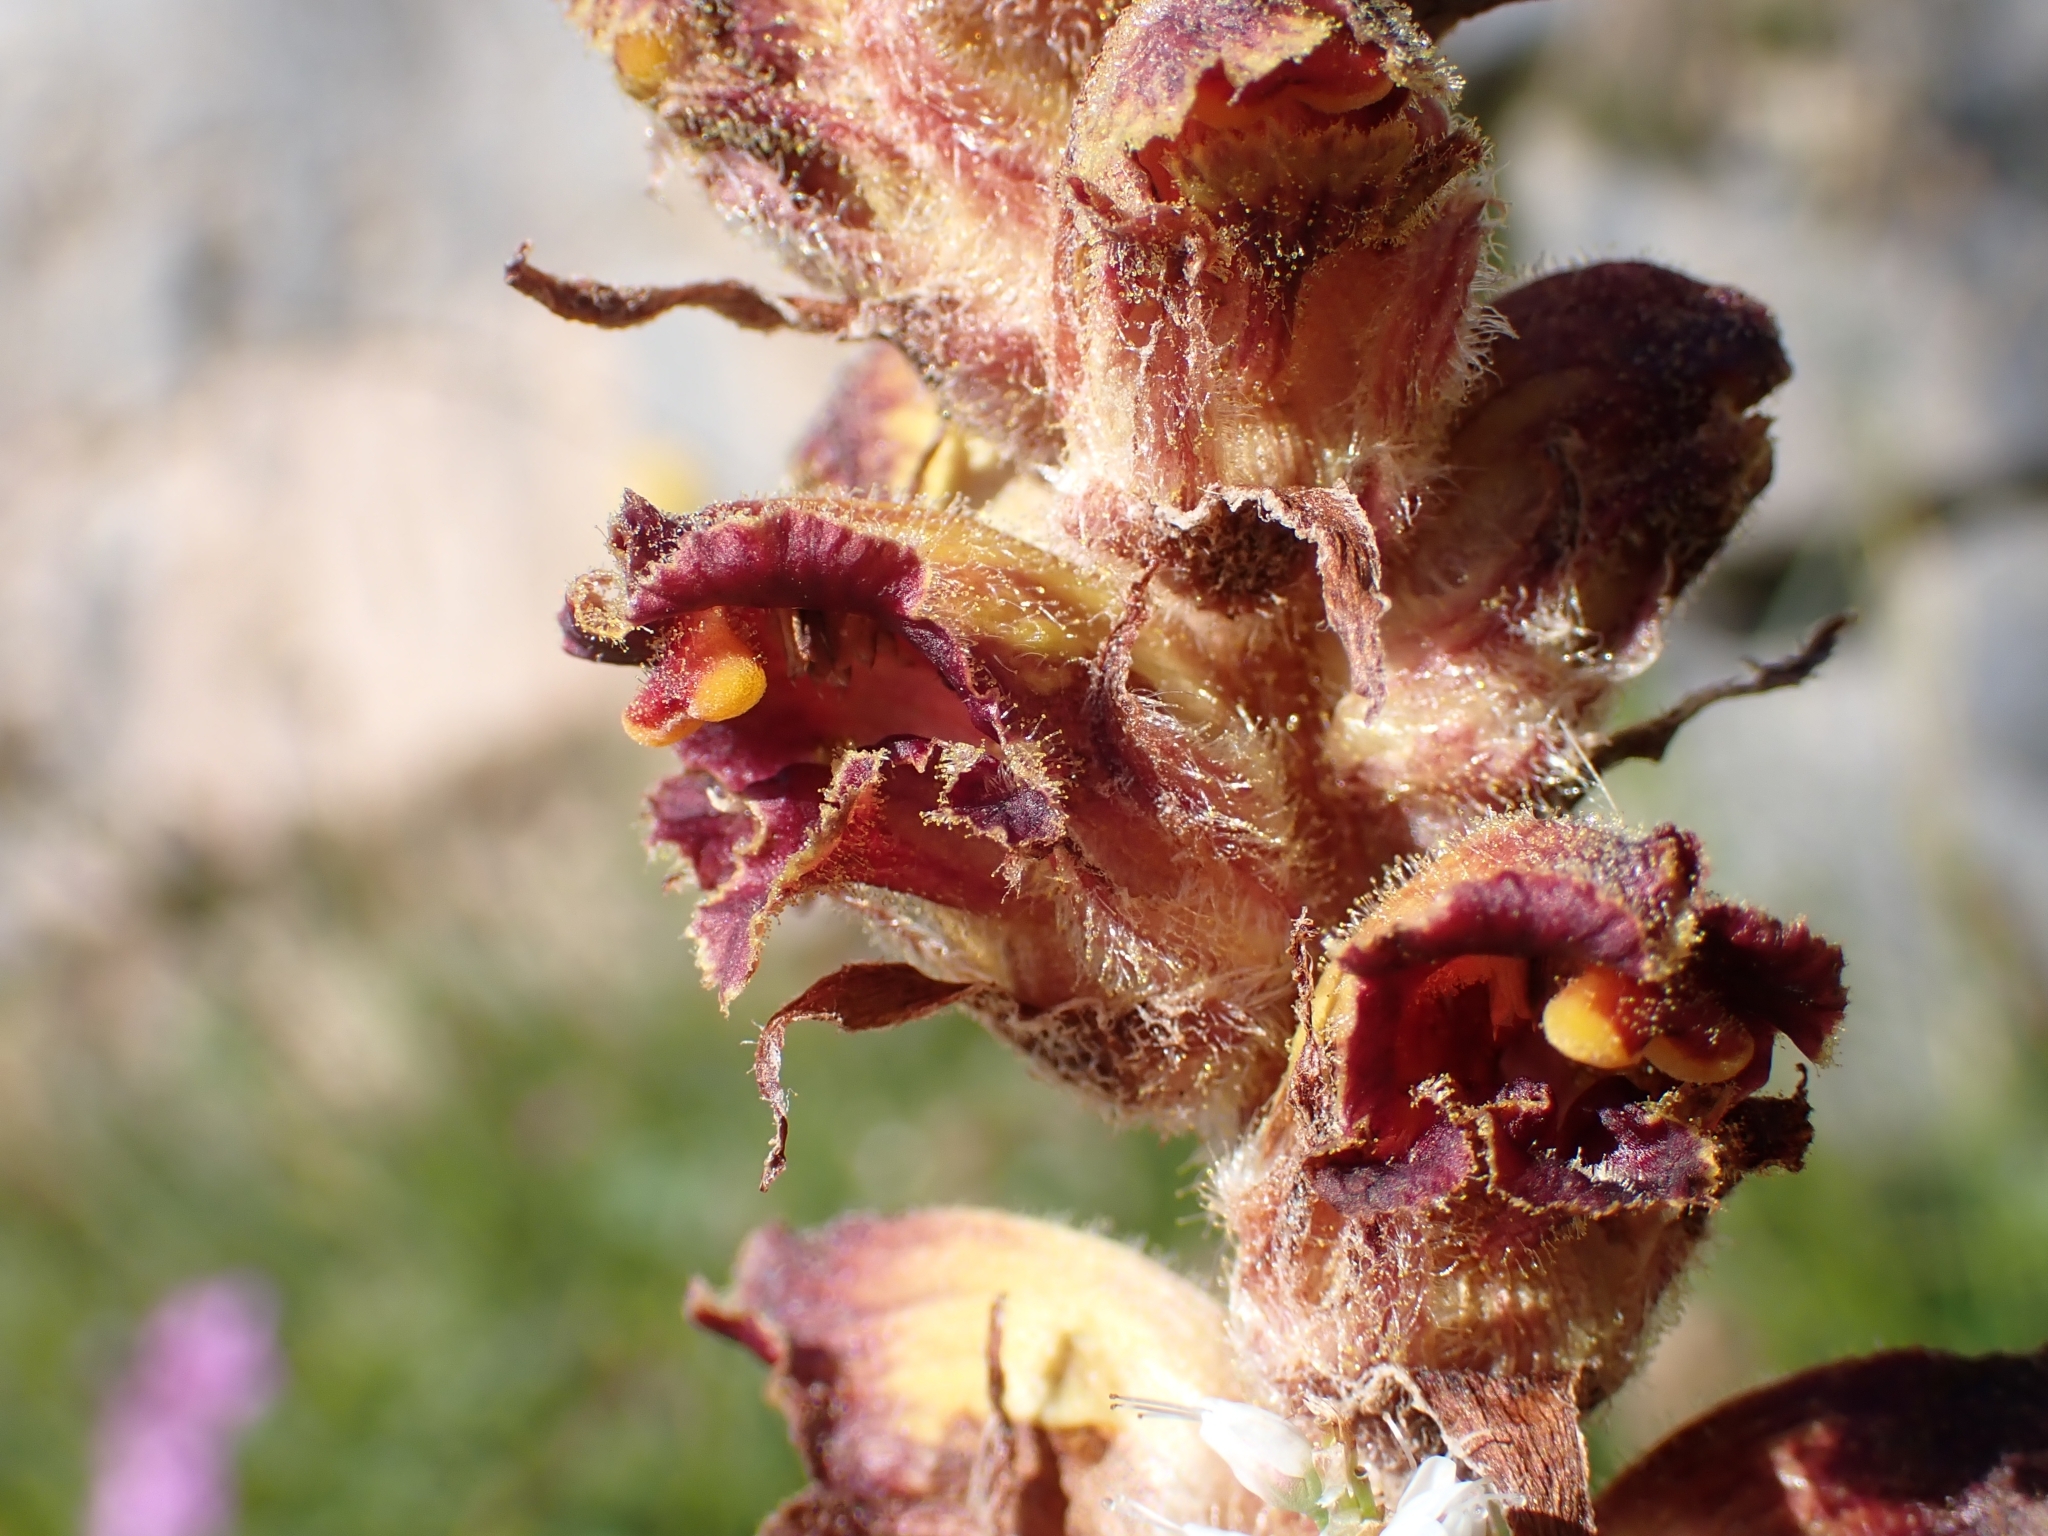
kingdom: Plantae
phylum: Tracheophyta
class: Magnoliopsida
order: Lamiales
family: Orobanchaceae
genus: Orobanche
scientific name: Orobanche gracilis
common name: Slender broomrape
